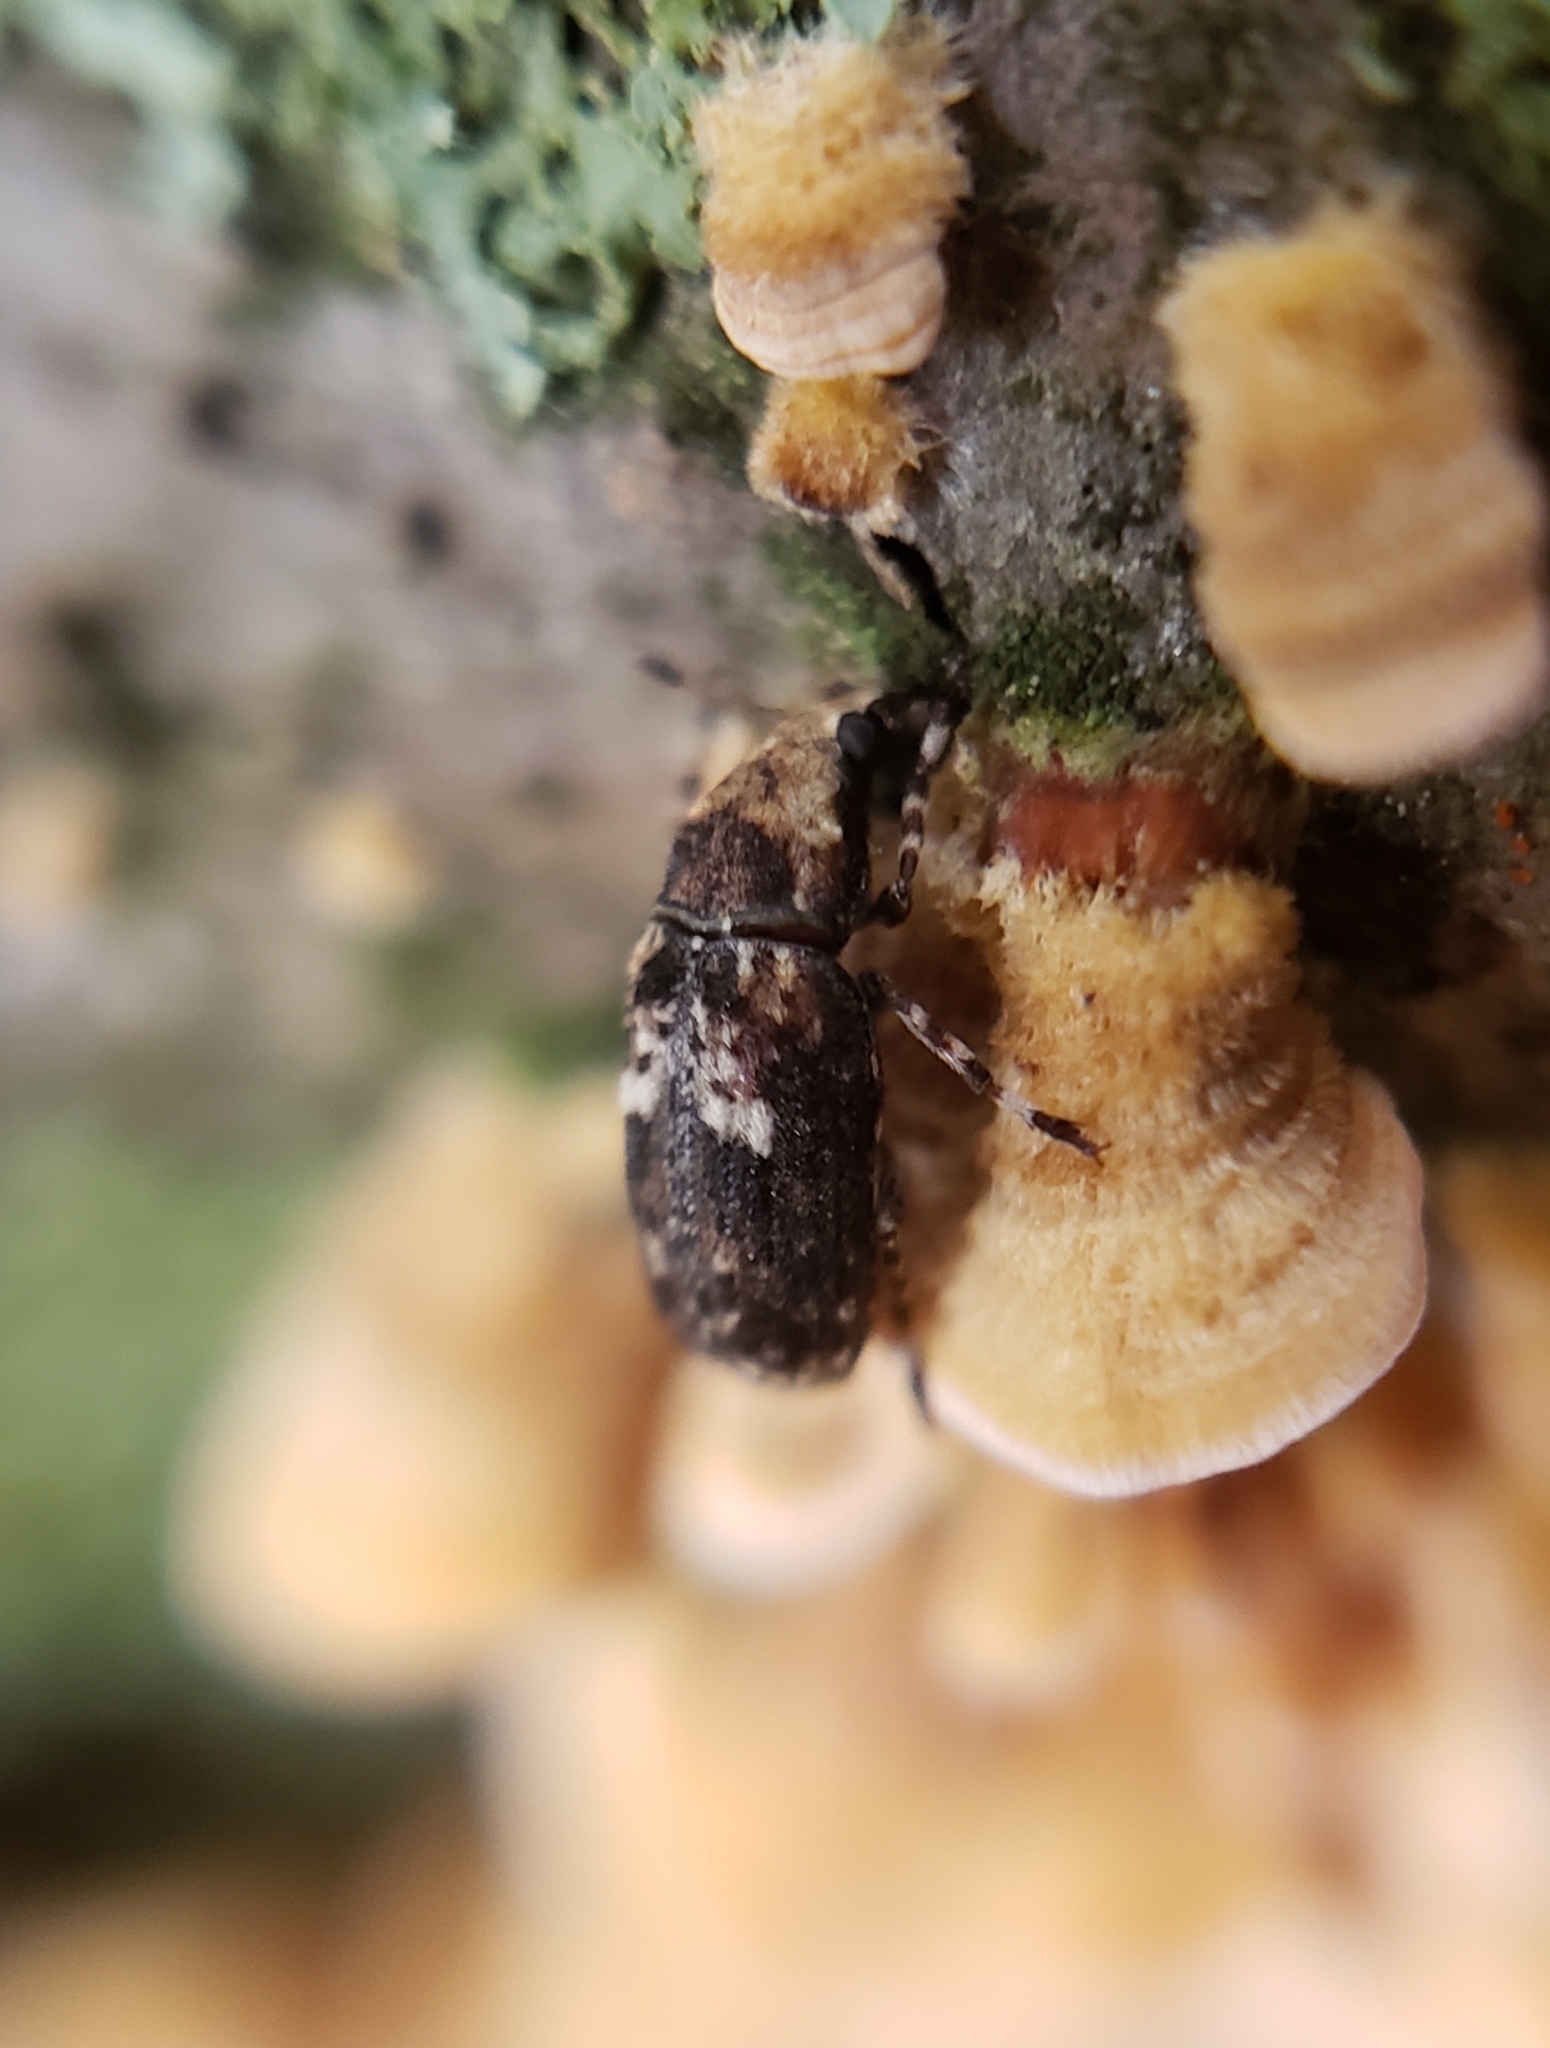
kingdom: Animalia
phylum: Arthropoda
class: Insecta
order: Coleoptera
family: Anthribidae
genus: Euparius
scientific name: Euparius paganus
